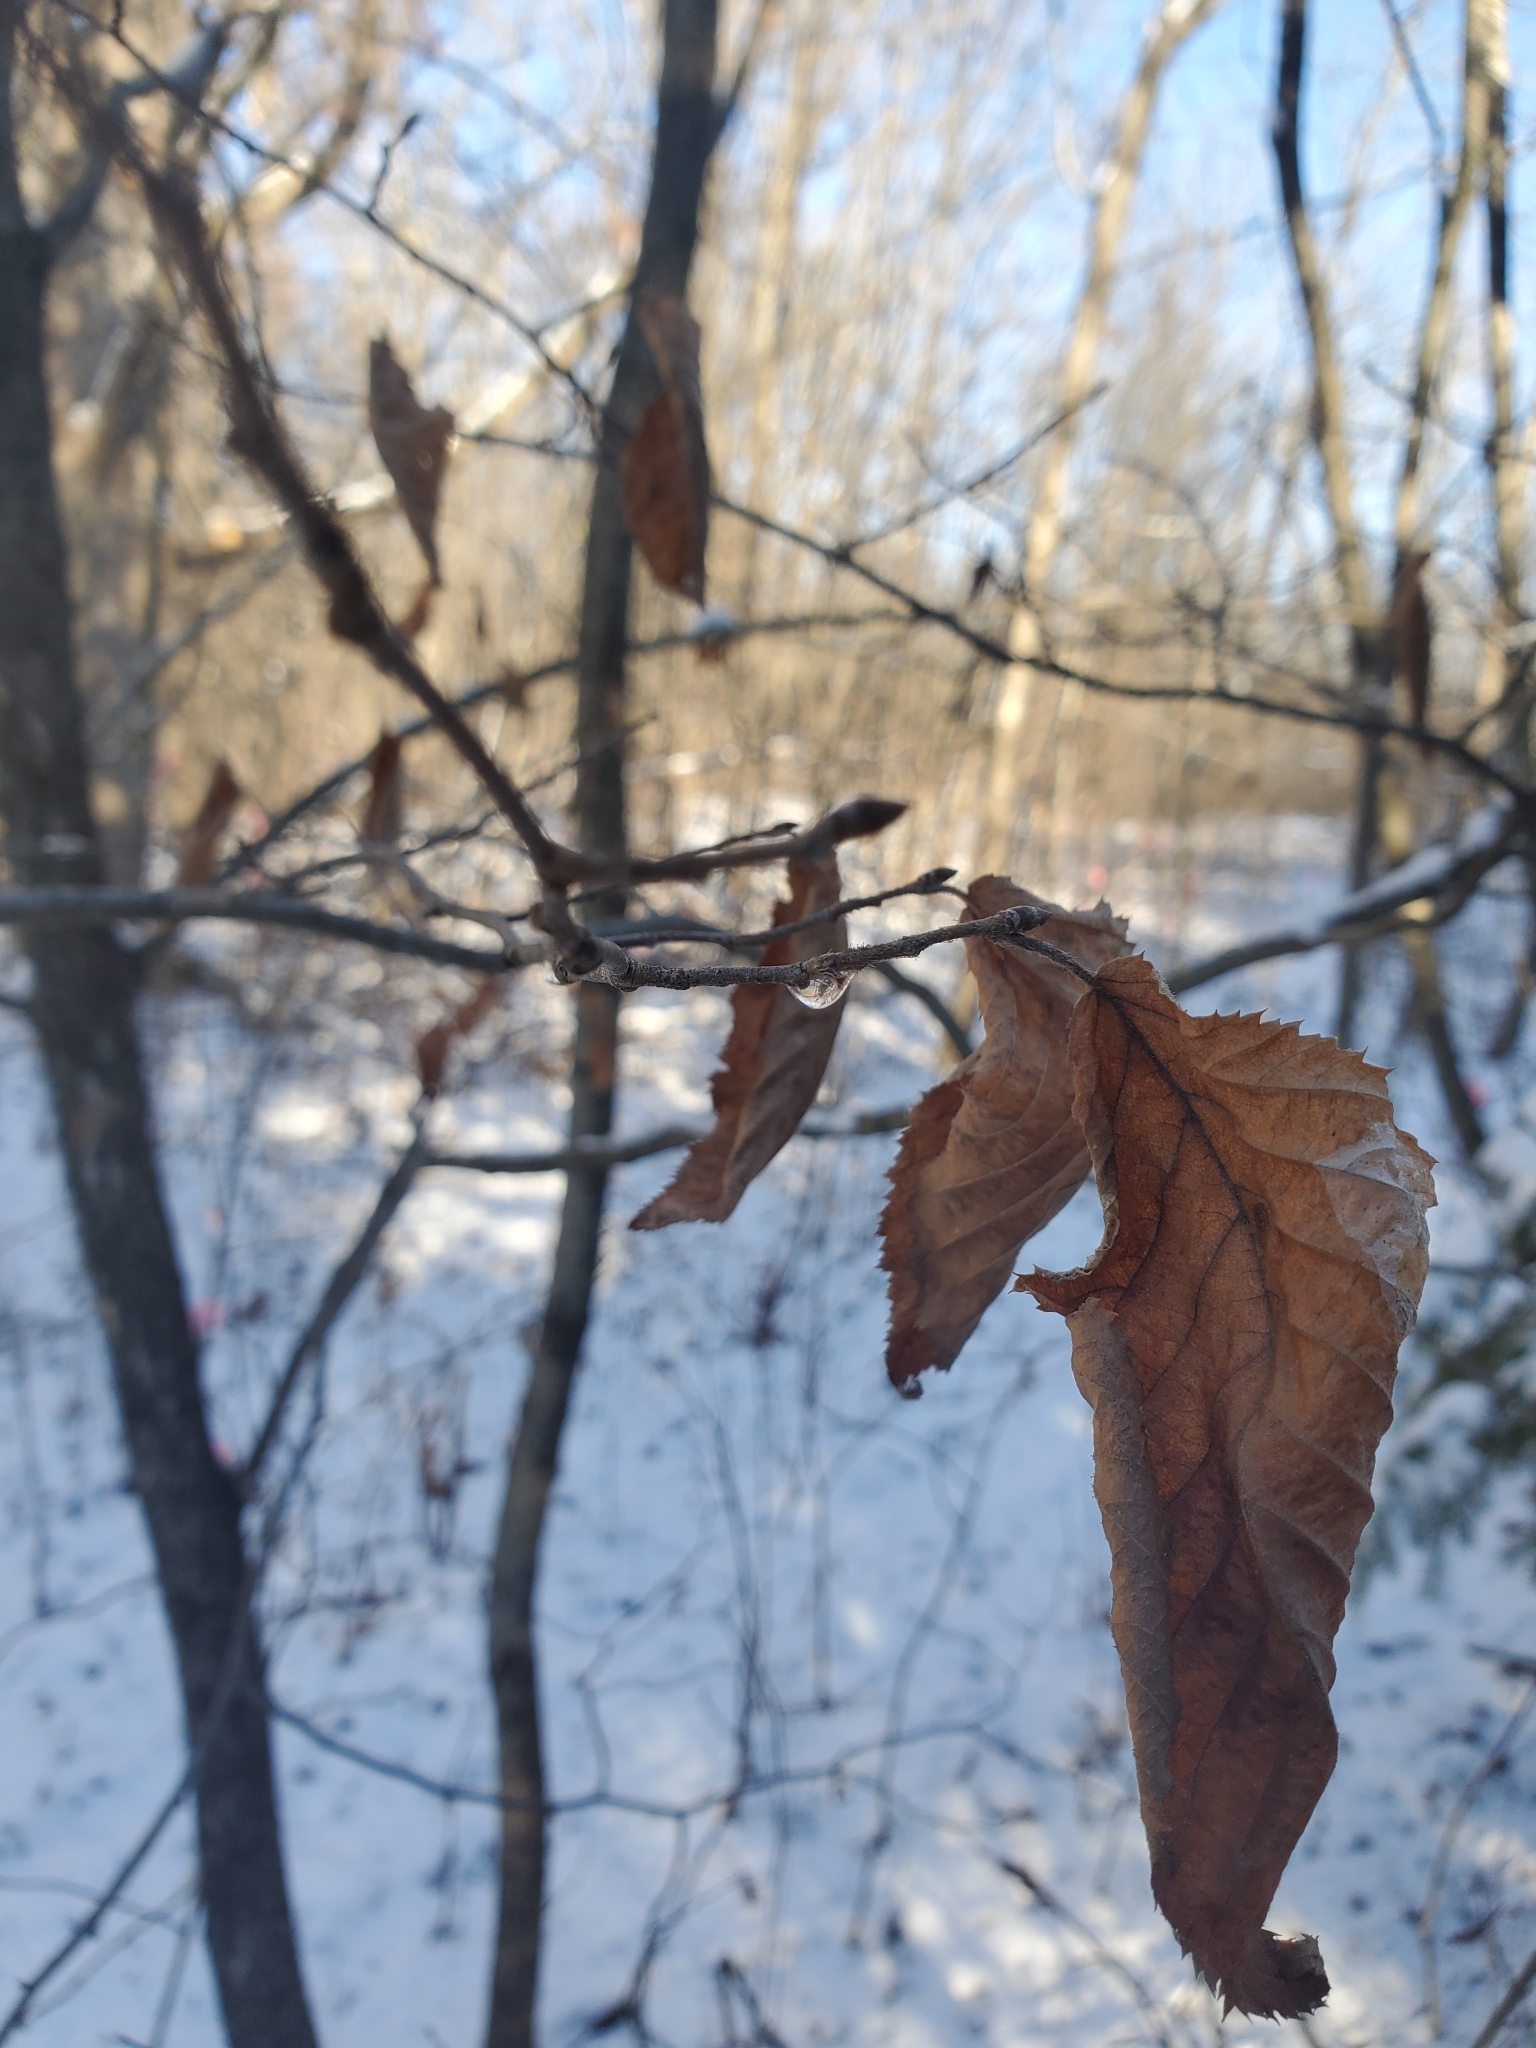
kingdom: Plantae
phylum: Tracheophyta
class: Magnoliopsida
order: Fagales
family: Betulaceae
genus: Ostrya
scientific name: Ostrya virginiana
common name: Ironwood
